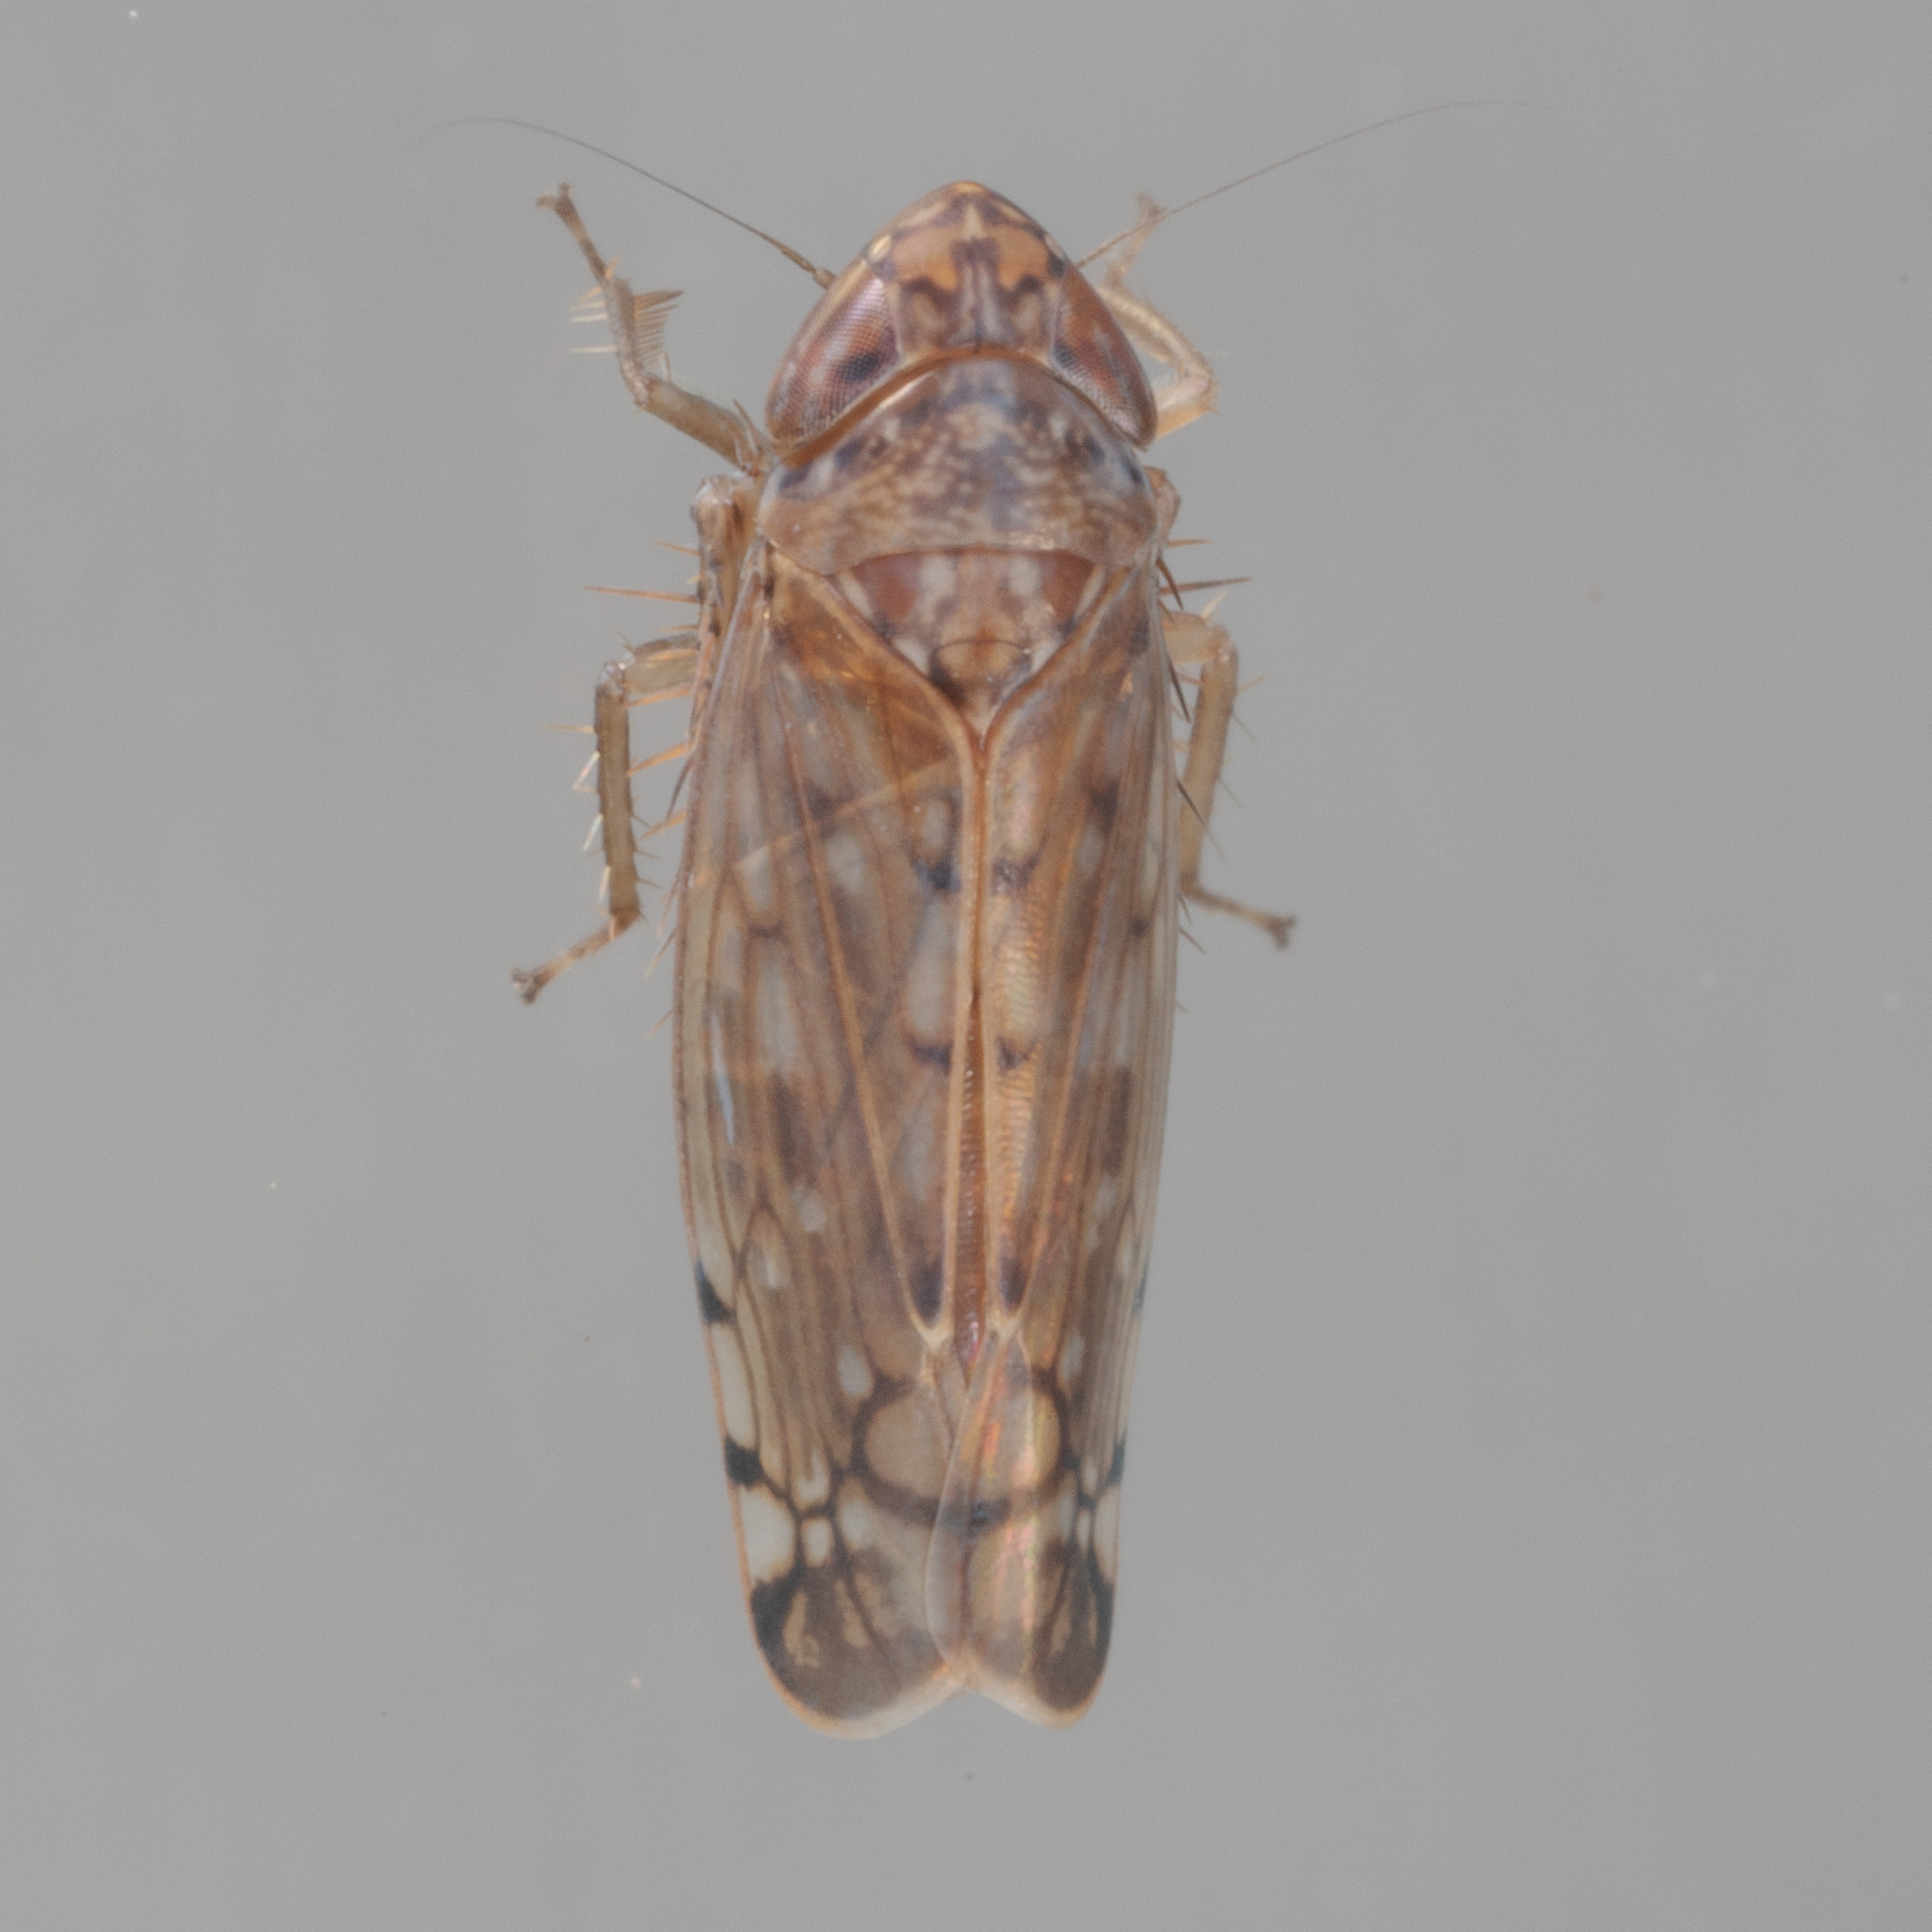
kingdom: Animalia
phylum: Arthropoda
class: Insecta
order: Hemiptera
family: Cicadellidae
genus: Osbornellus
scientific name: Osbornellus filamenta
